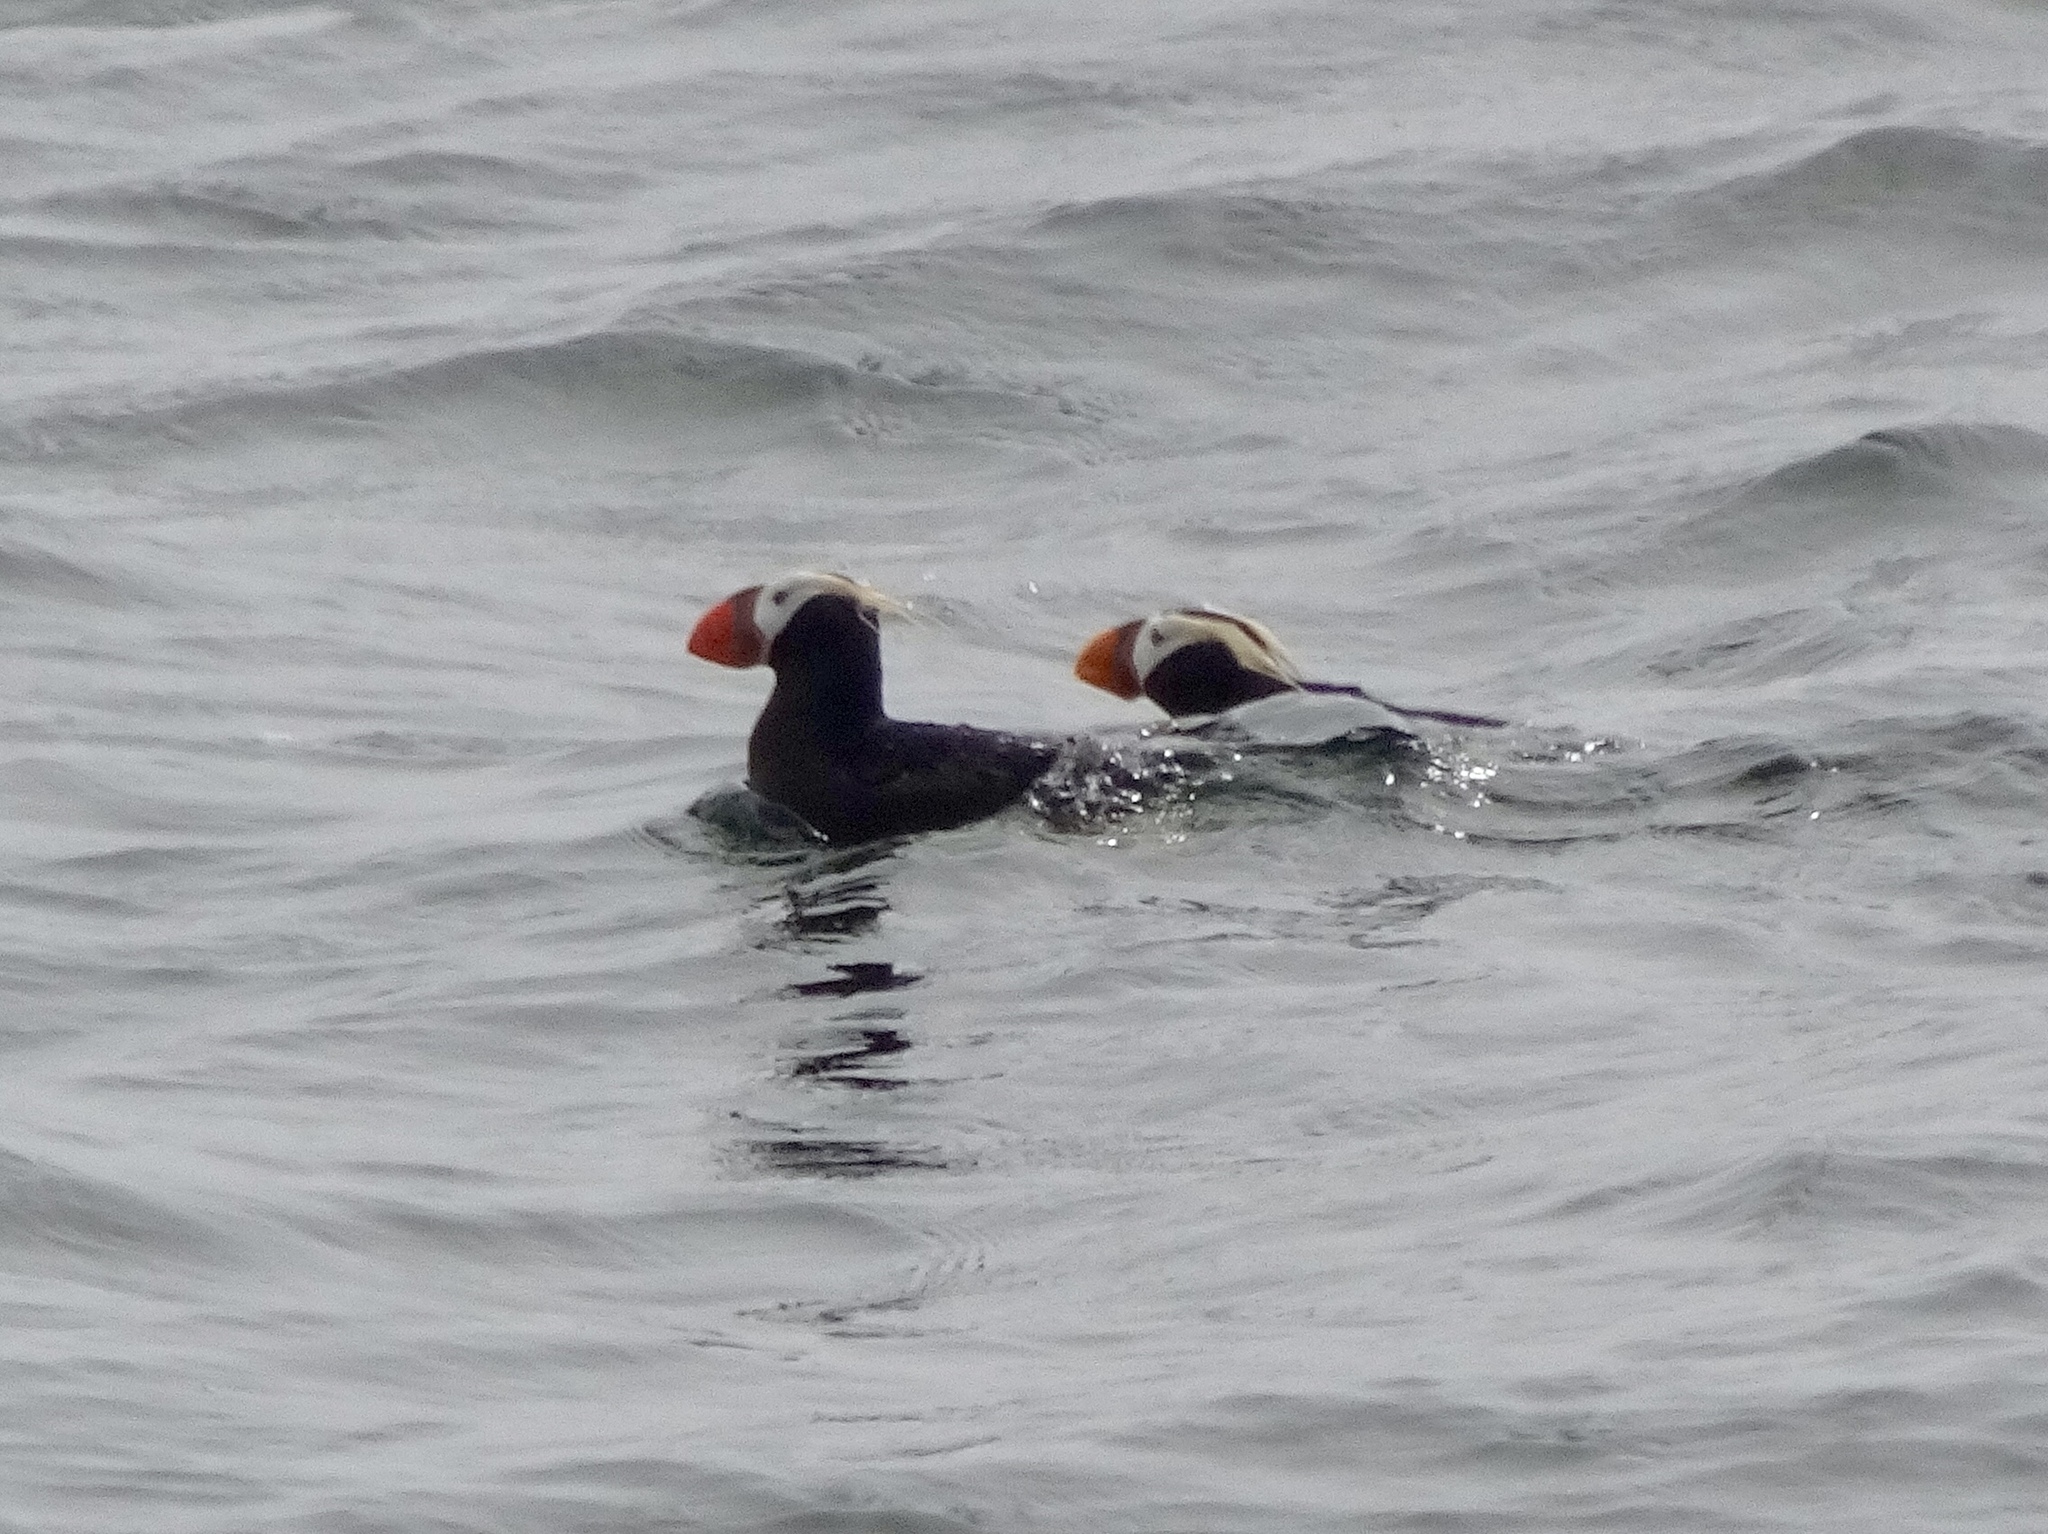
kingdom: Animalia
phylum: Chordata
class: Aves
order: Charadriiformes
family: Alcidae
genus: Fratercula
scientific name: Fratercula cirrhata
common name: Tufted puffin
